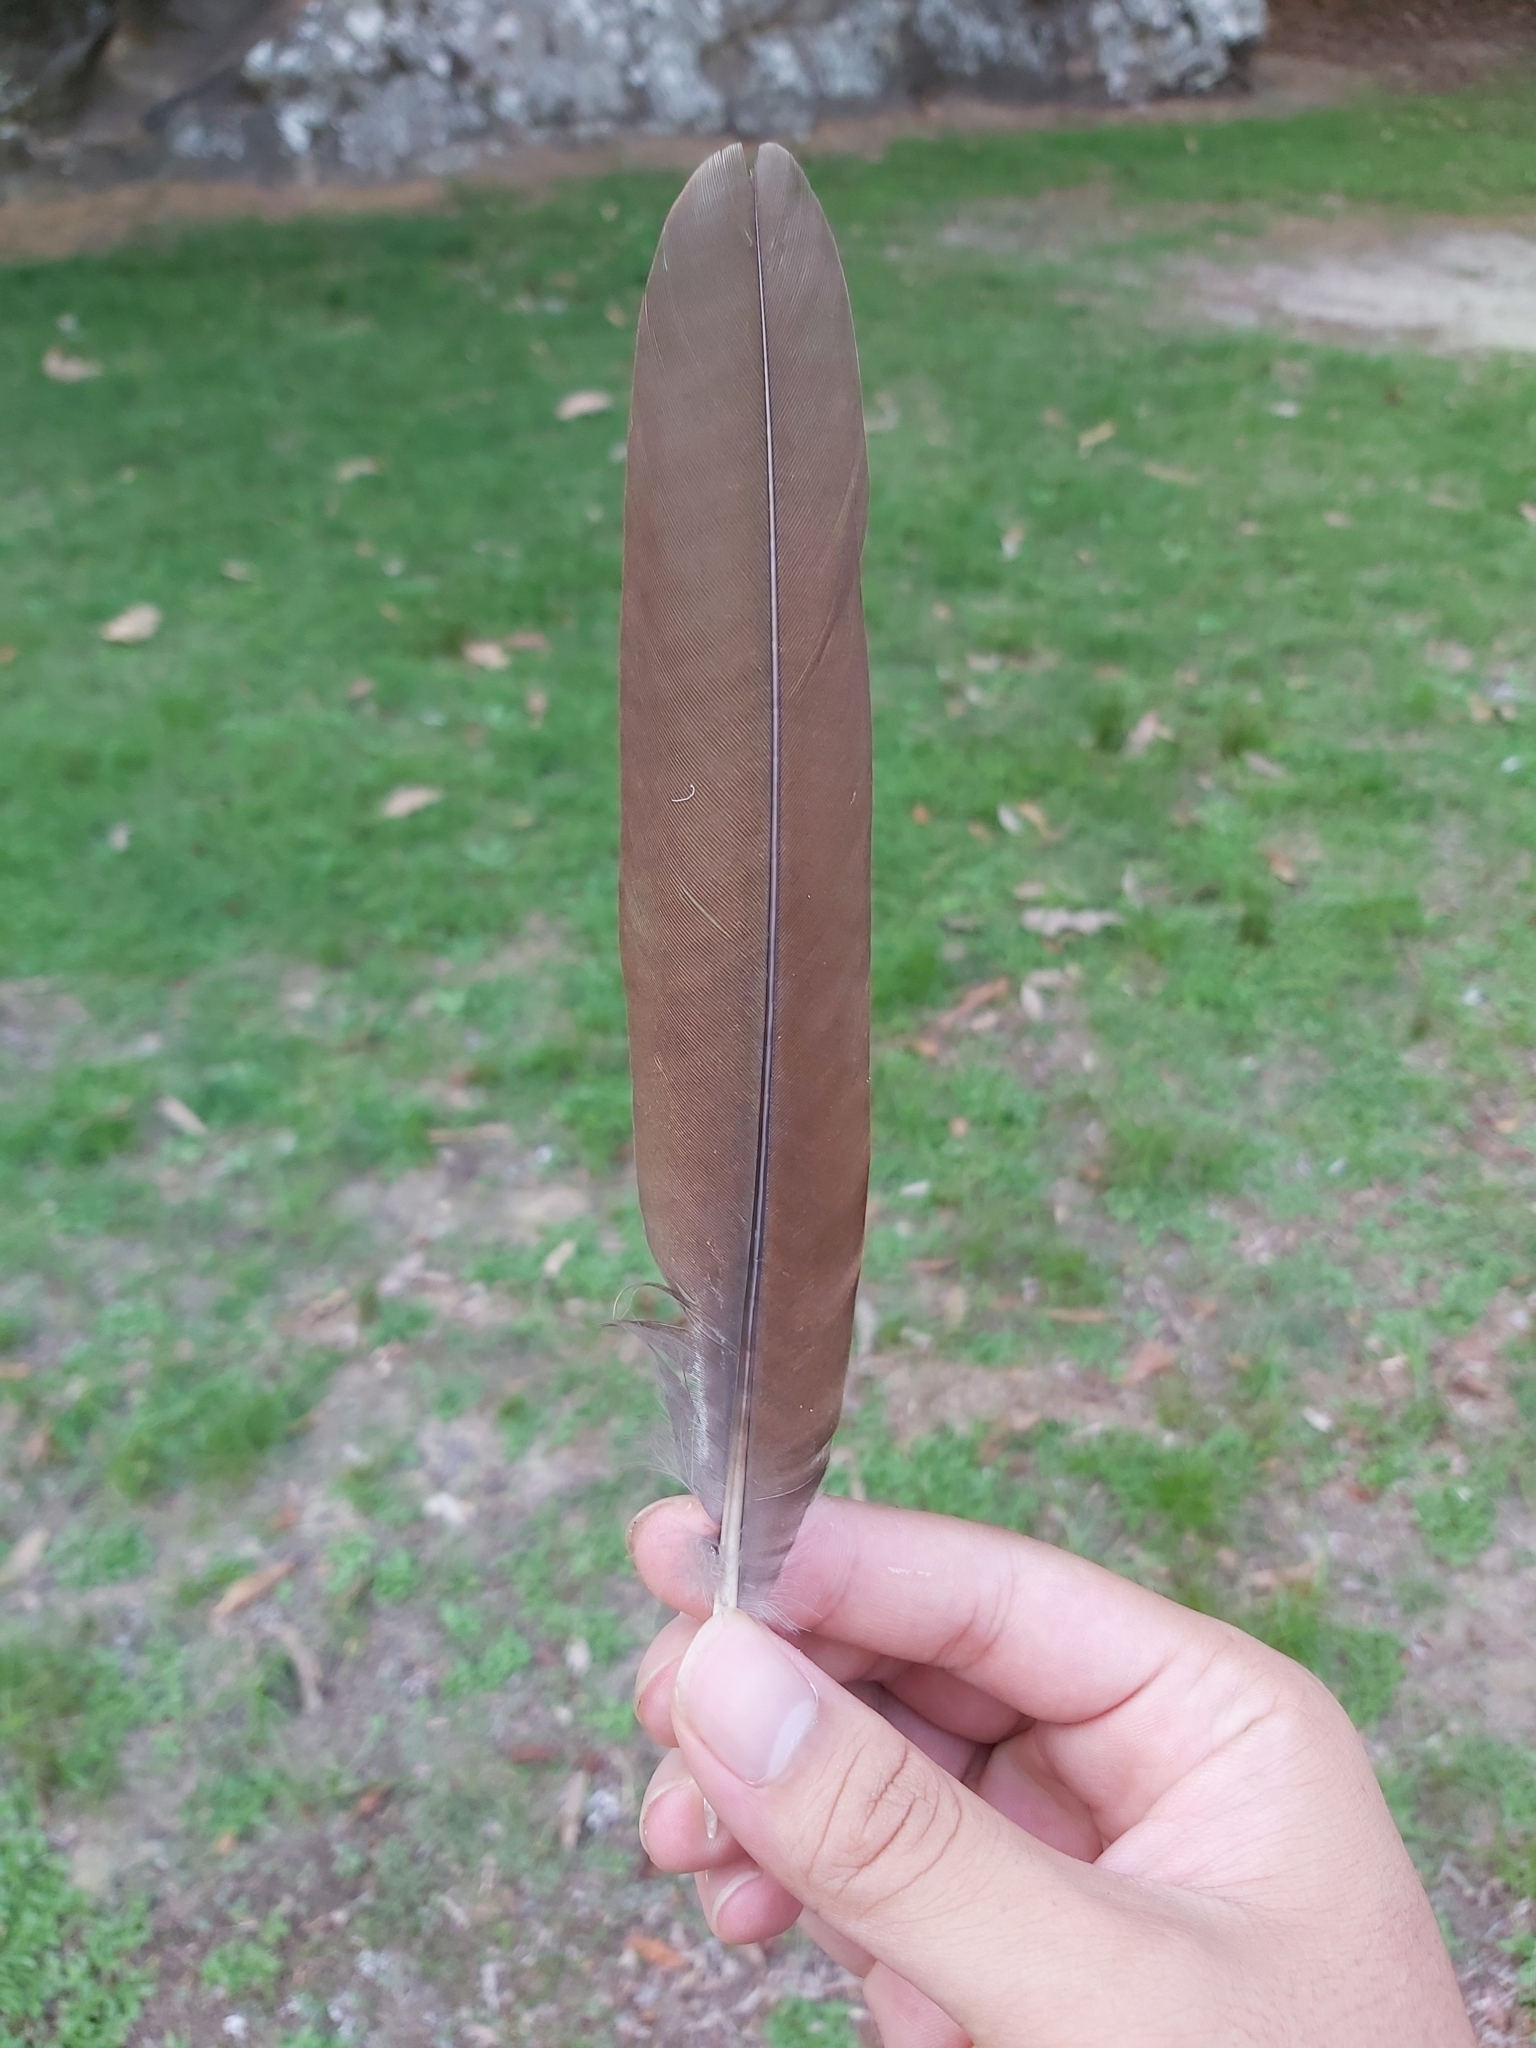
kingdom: Animalia
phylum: Chordata
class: Aves
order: Columbiformes
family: Columbidae
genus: Macropygia
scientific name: Macropygia phasianella
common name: Brown cuckoo-dove
